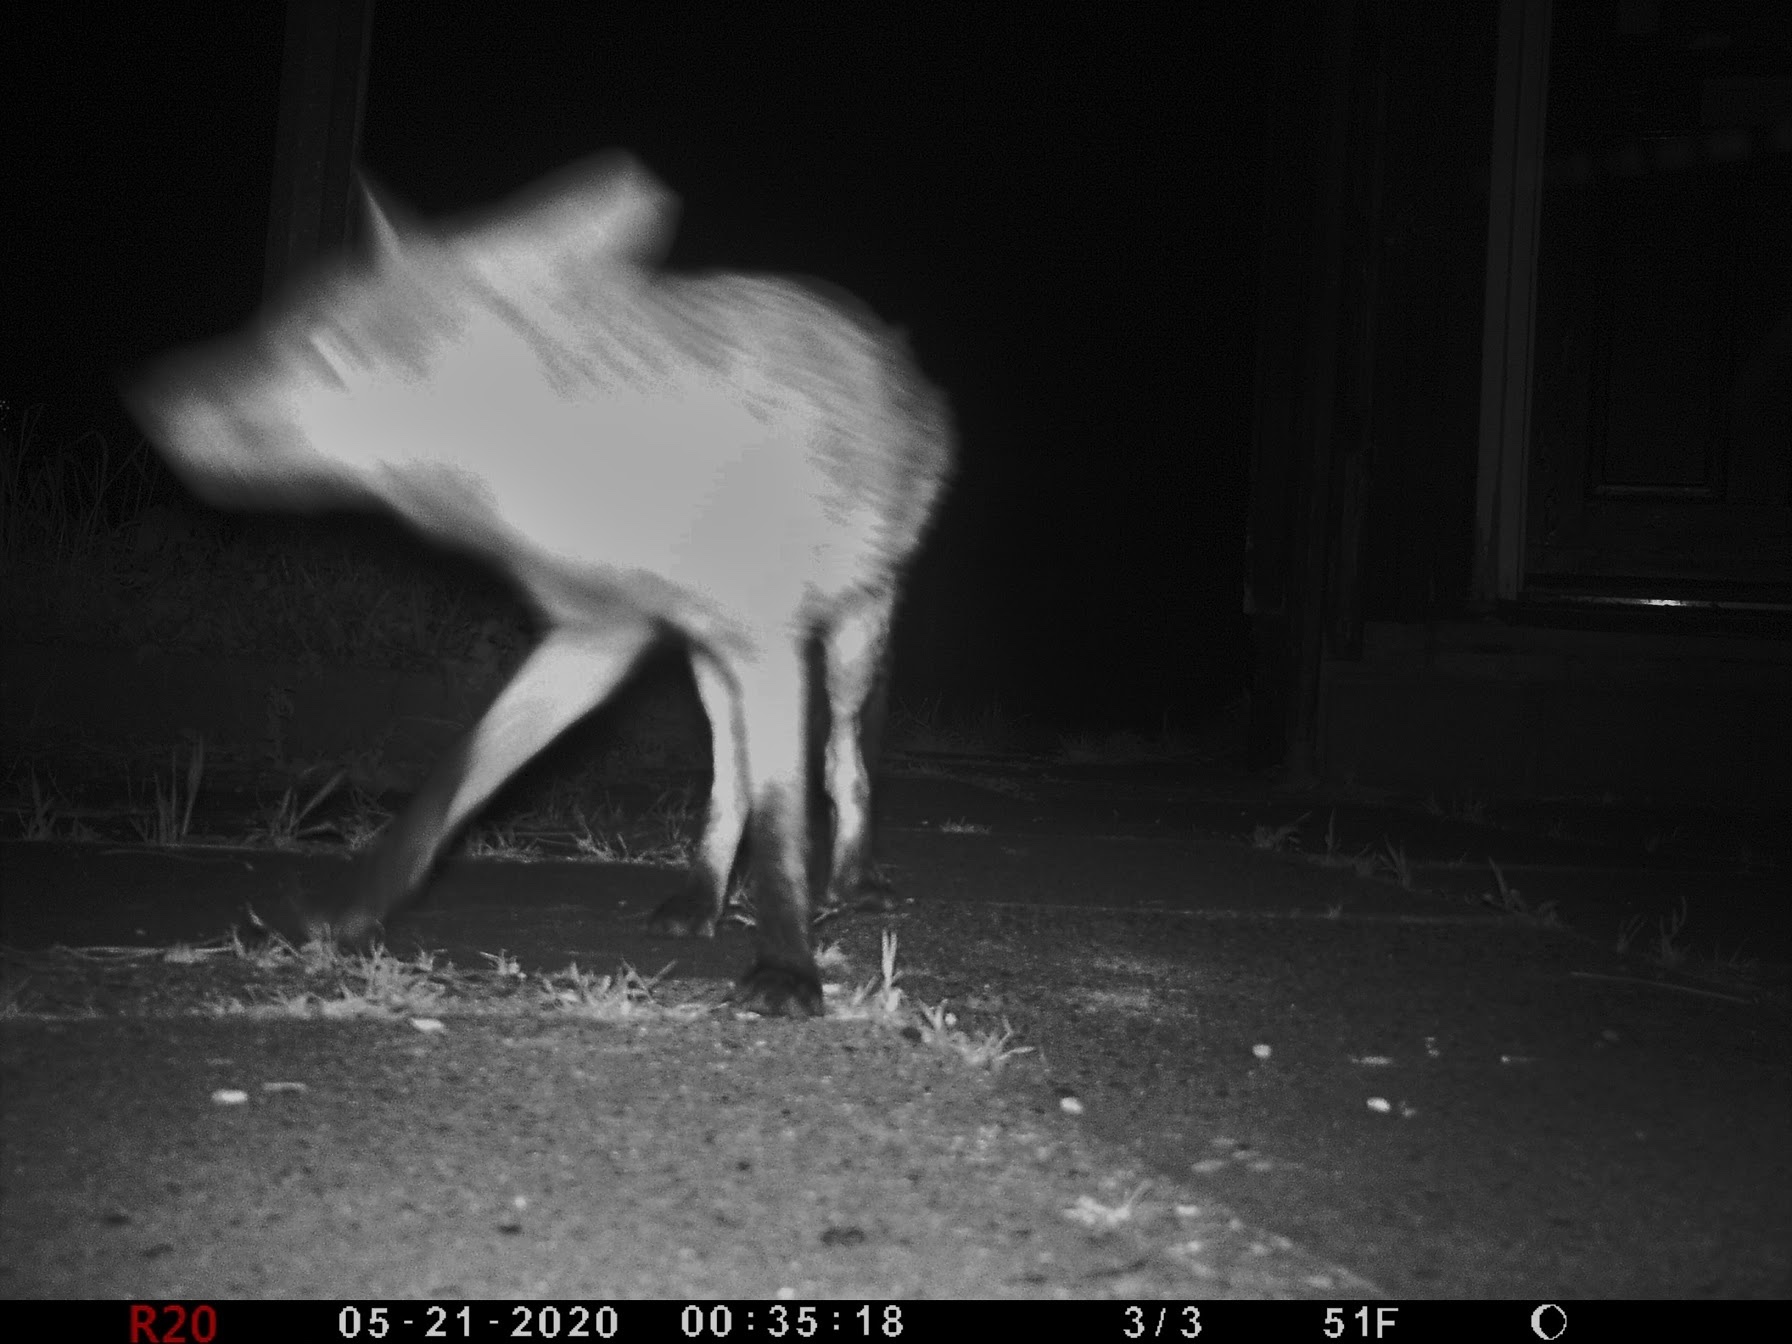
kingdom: Animalia
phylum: Chordata
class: Mammalia
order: Carnivora
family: Canidae
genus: Vulpes
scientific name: Vulpes vulpes
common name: Red fox
